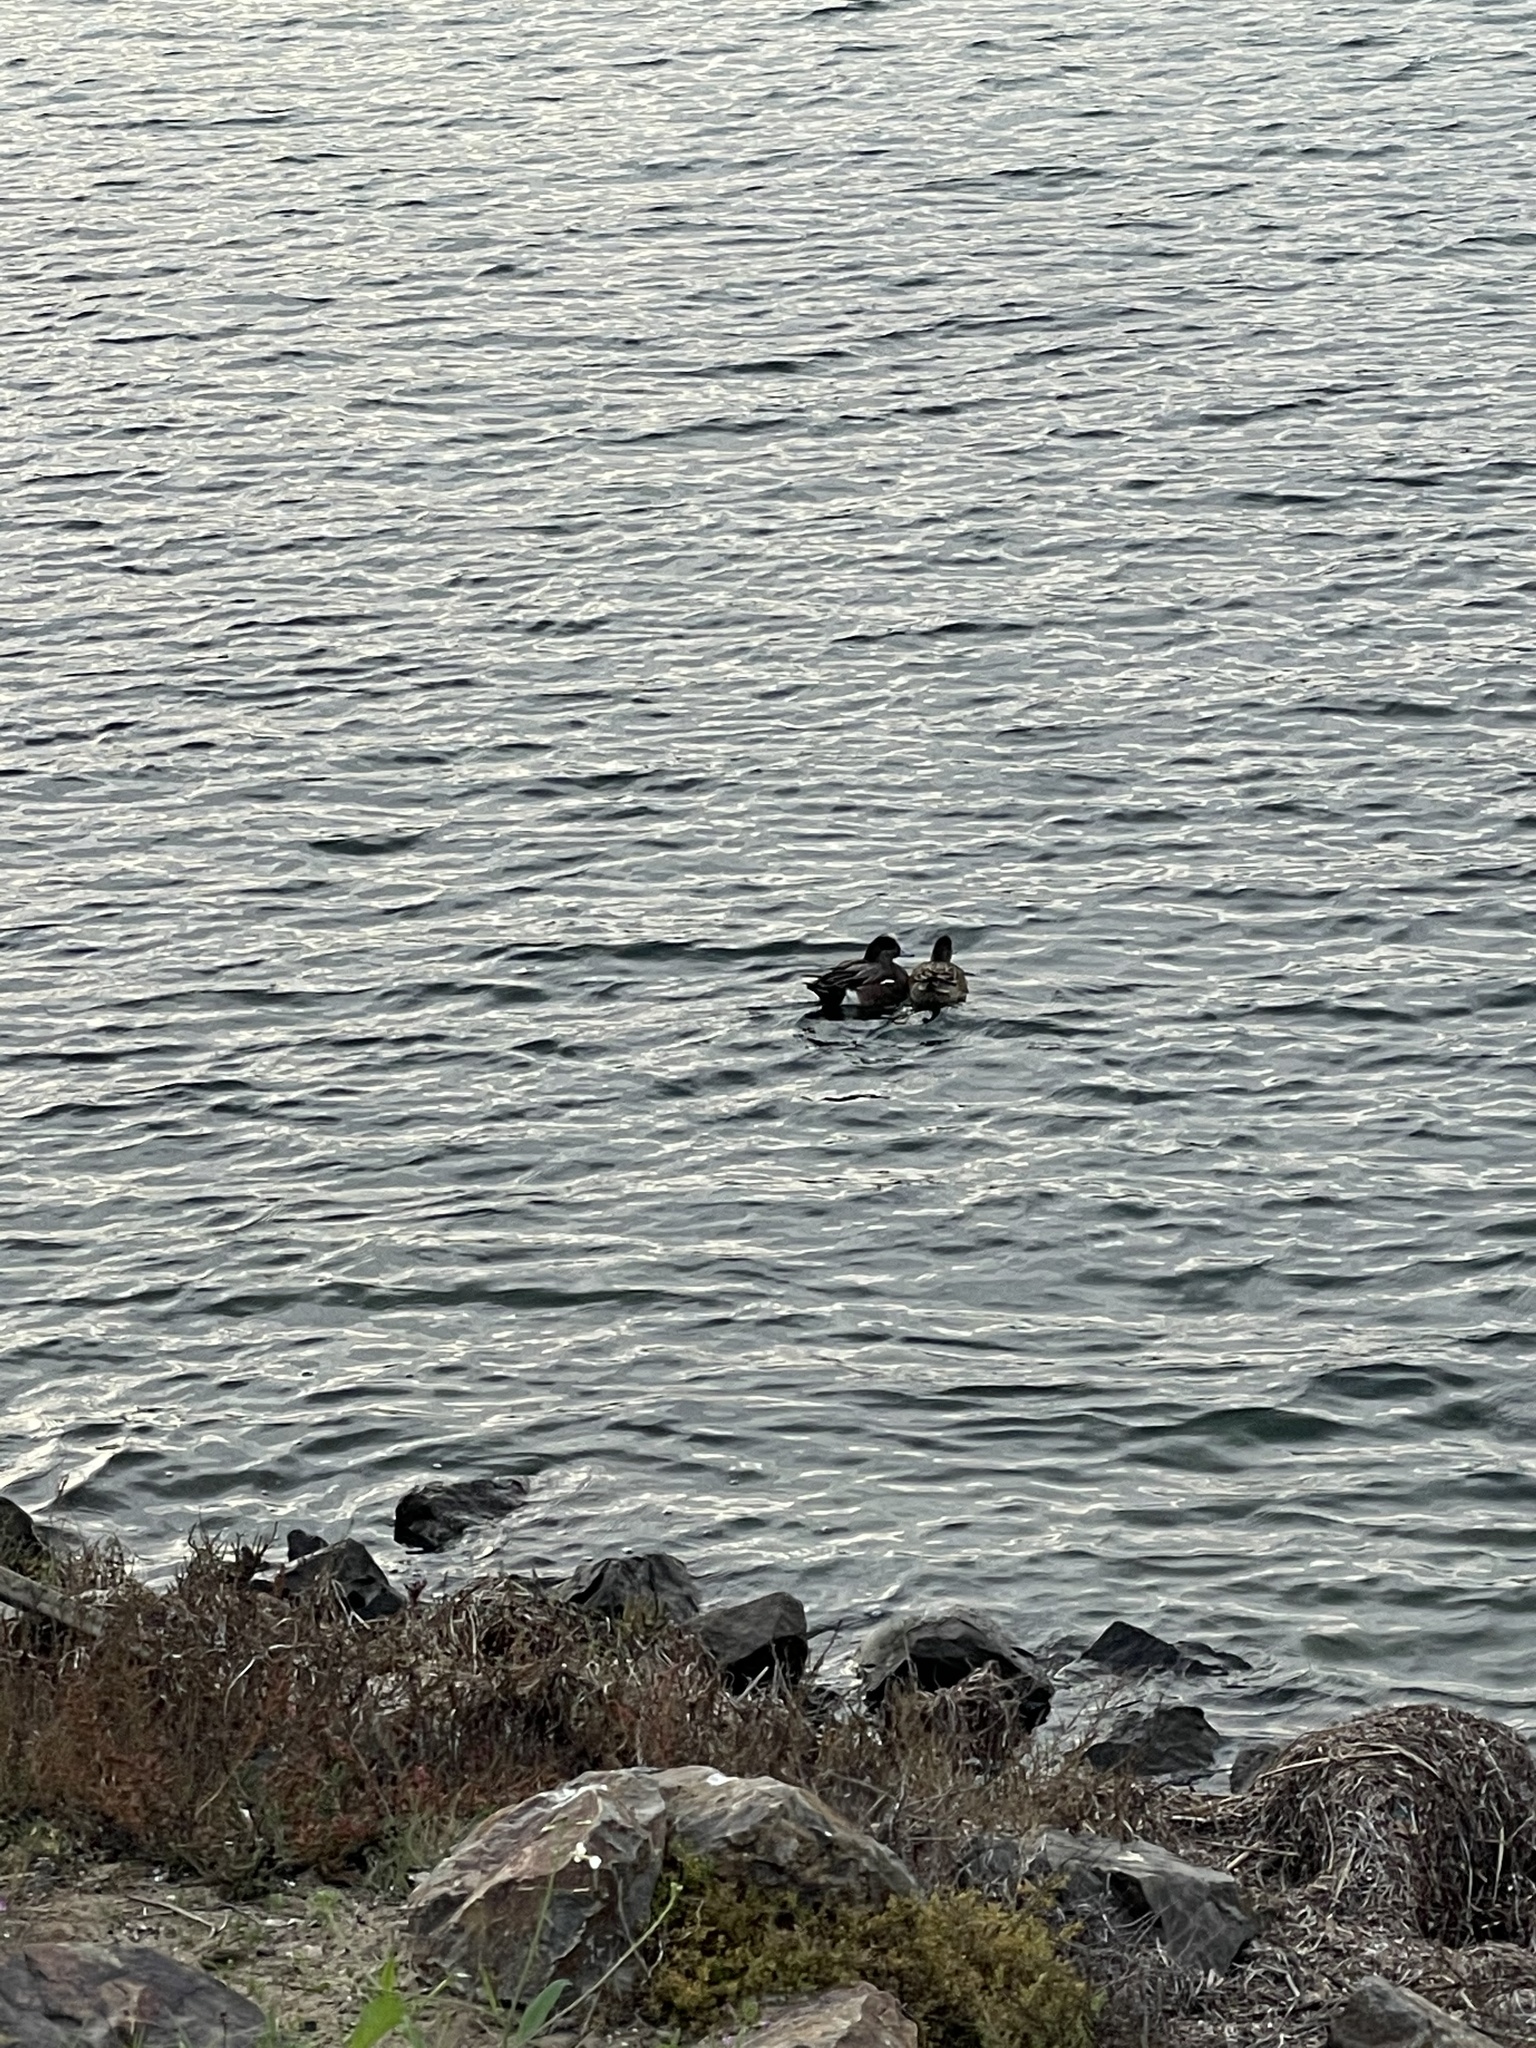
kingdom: Animalia
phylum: Chordata
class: Aves
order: Anseriformes
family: Anatidae
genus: Mareca
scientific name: Mareca americana
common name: American wigeon
